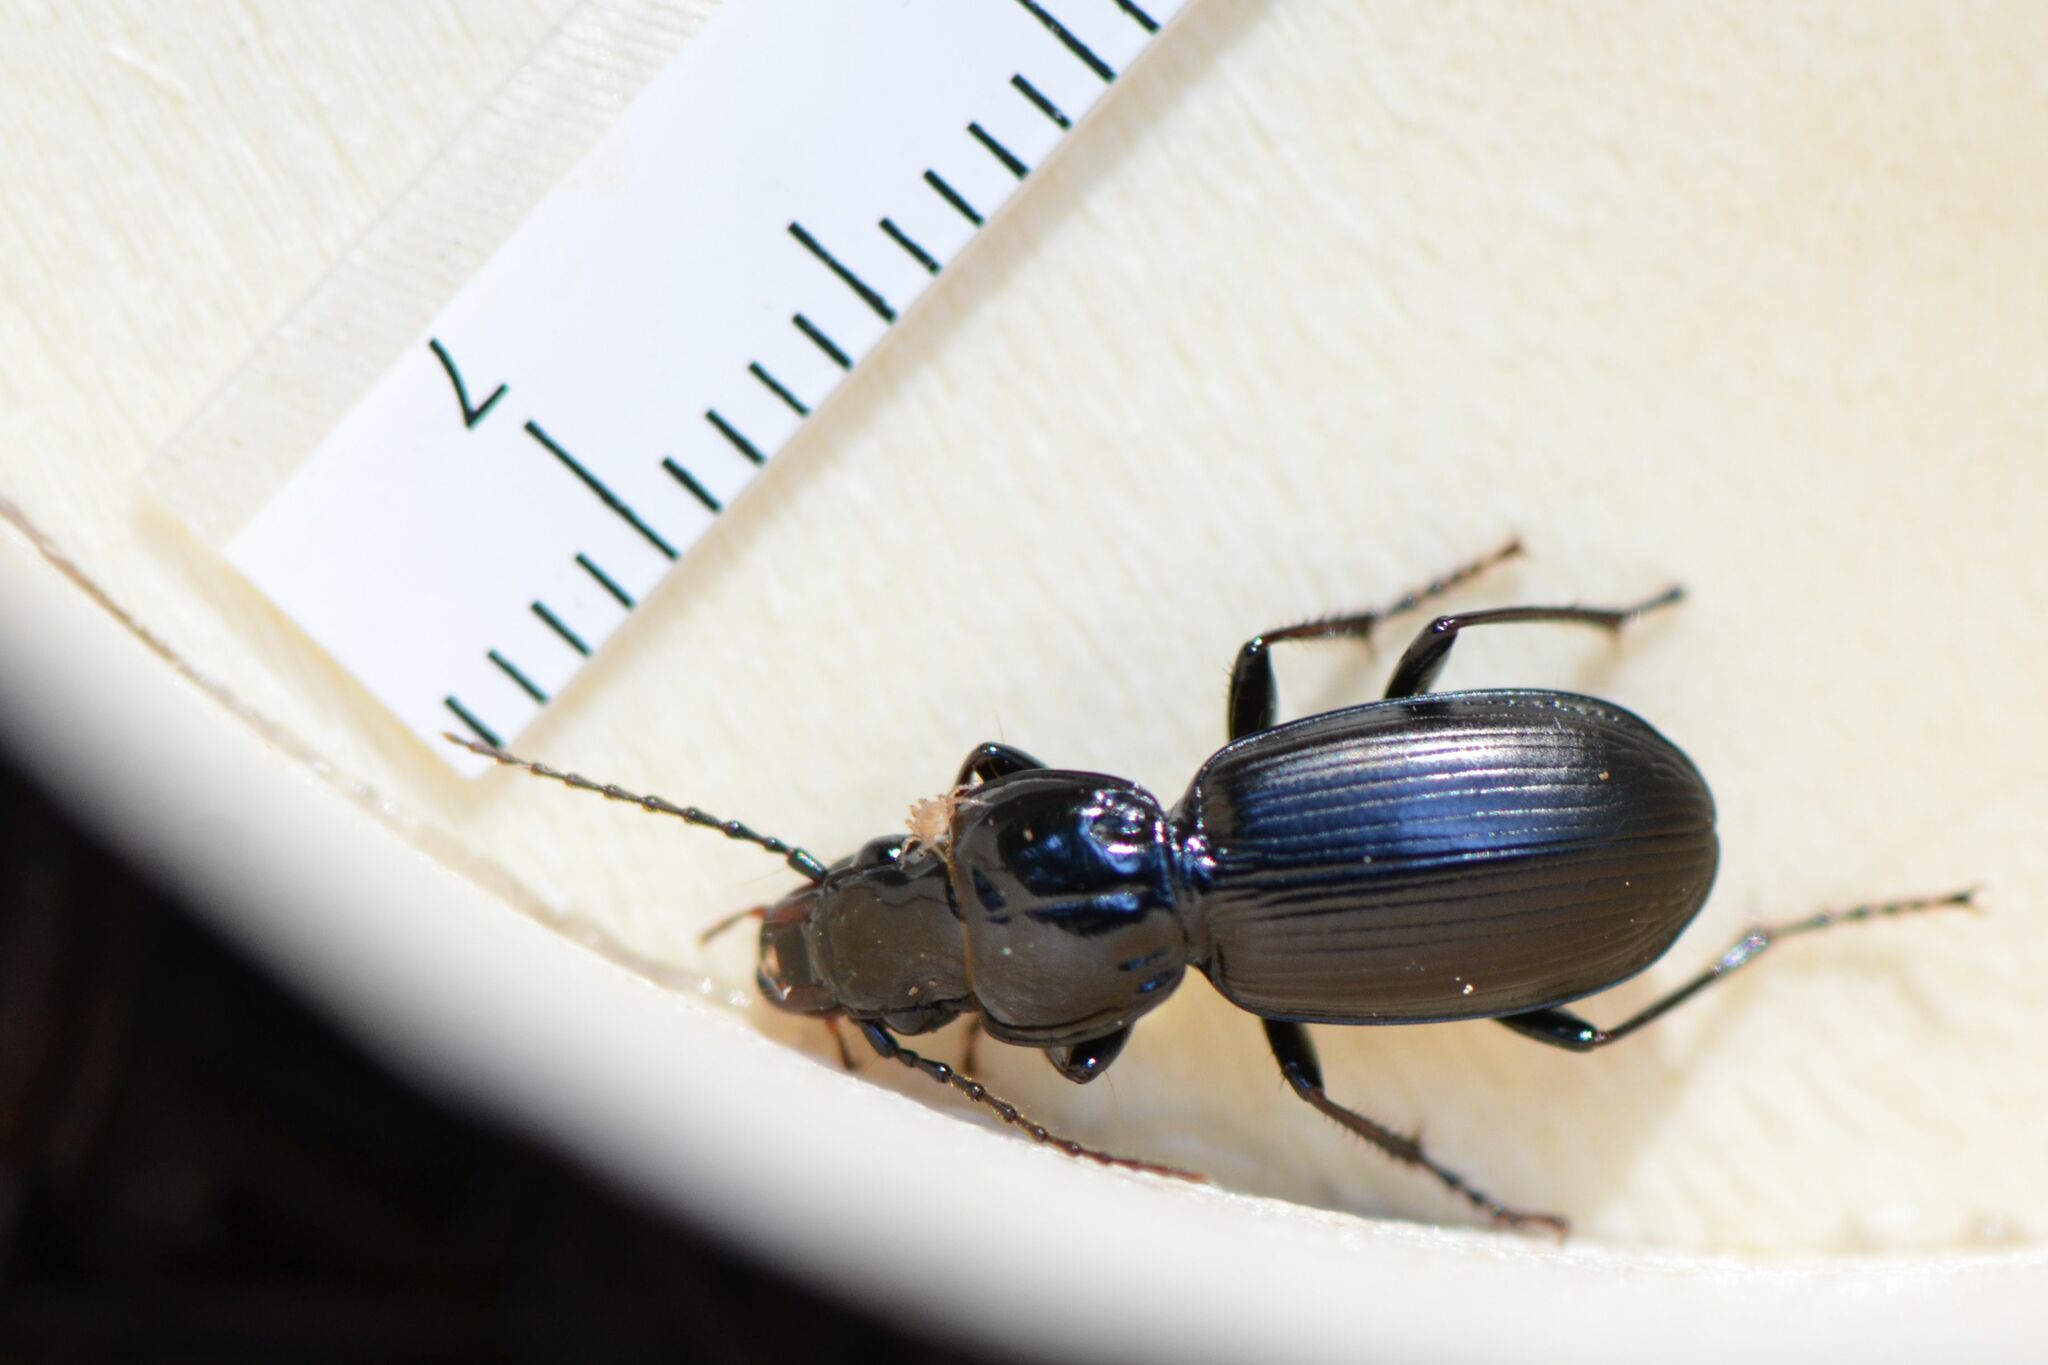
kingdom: Animalia
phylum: Arthropoda
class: Insecta
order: Coleoptera
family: Carabidae
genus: Pterostichus
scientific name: Pterostichus madidus
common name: Black clock
